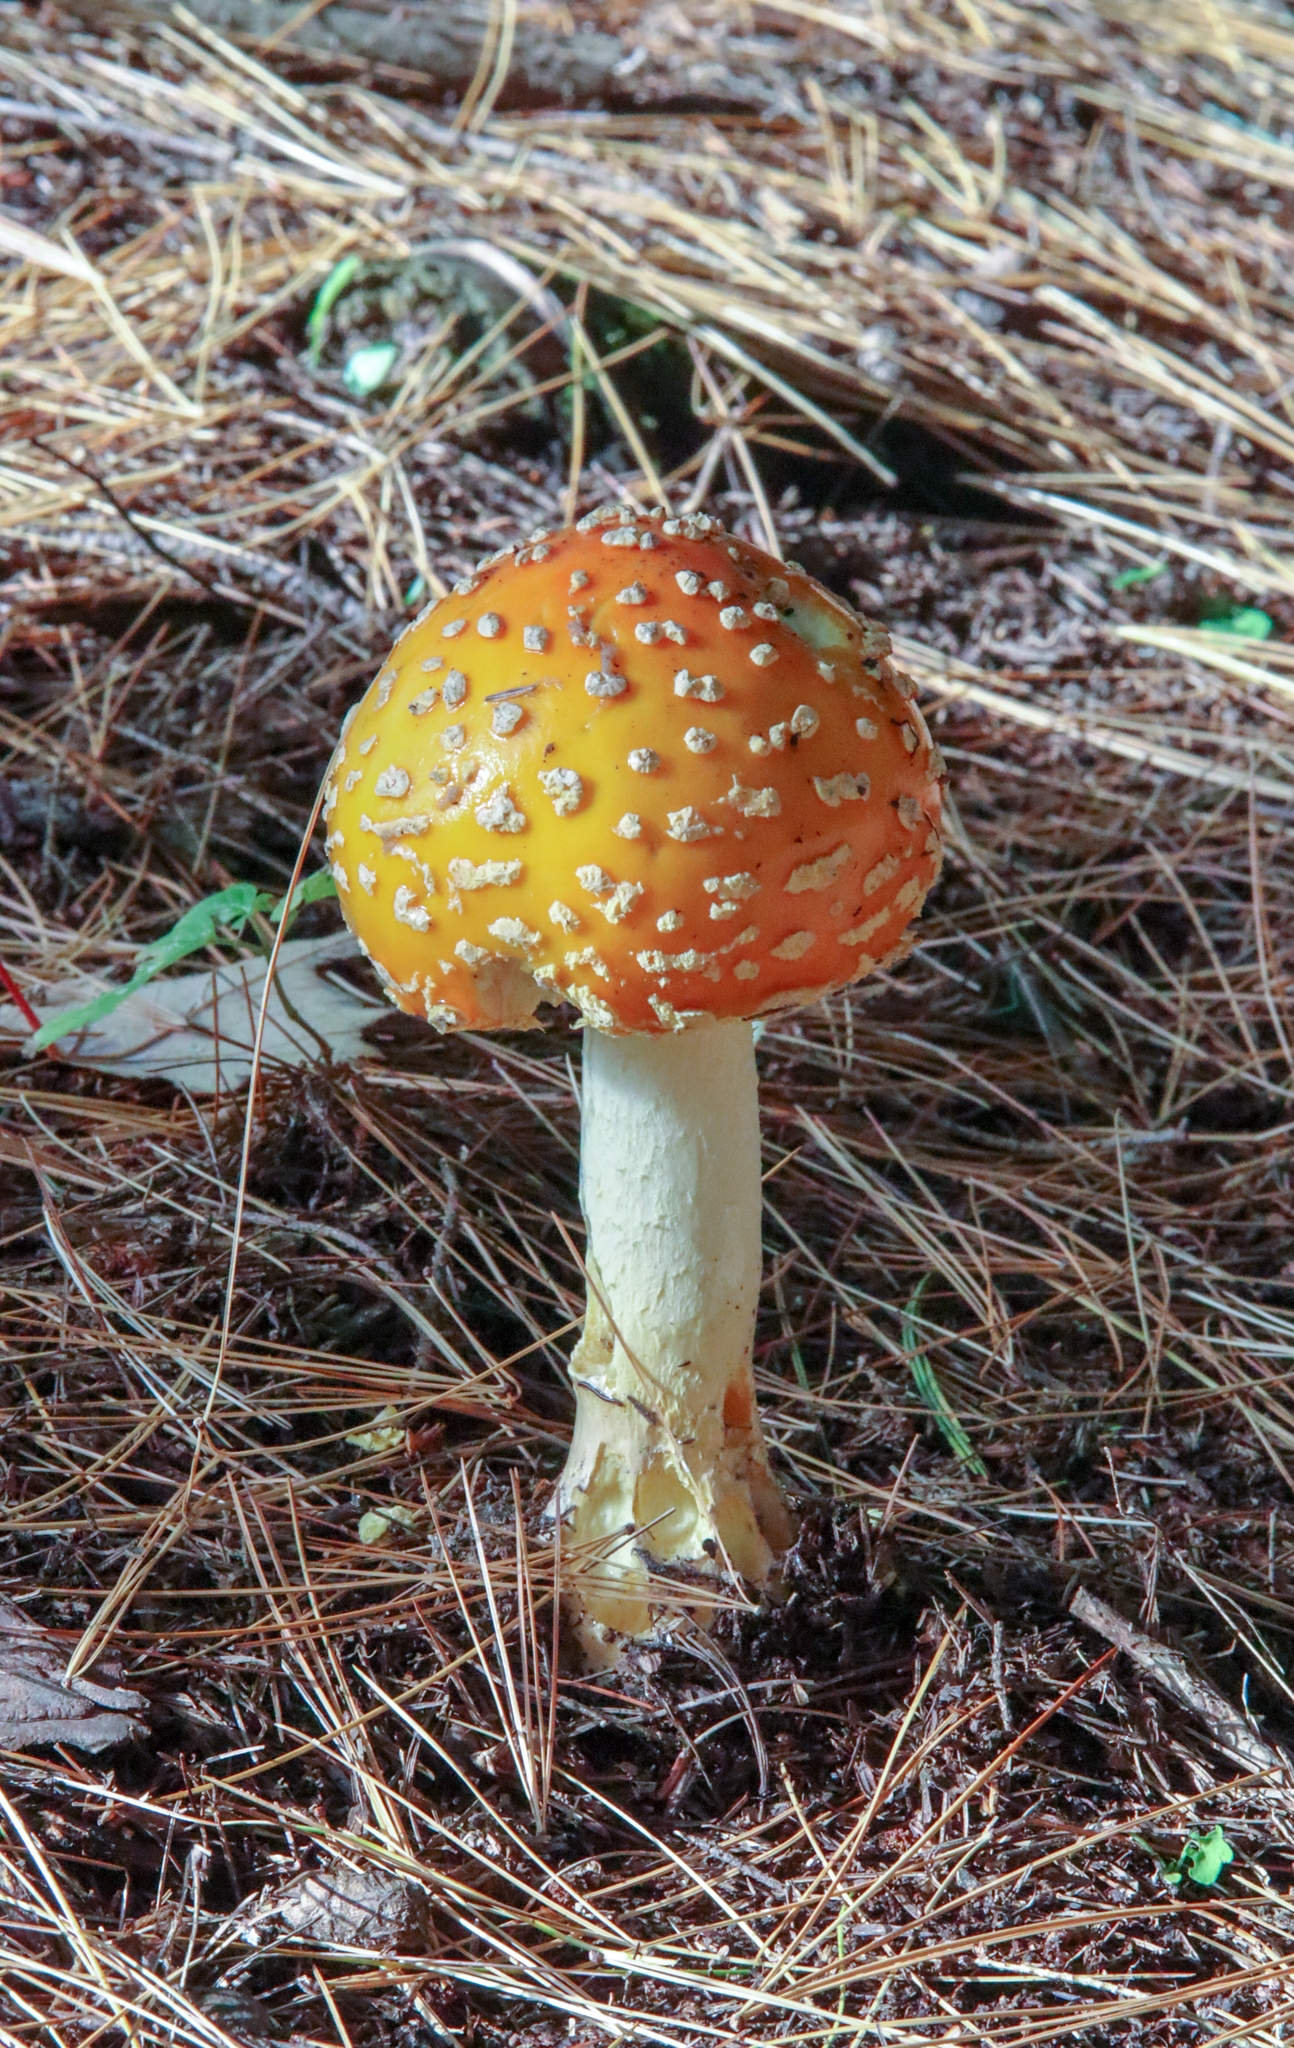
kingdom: Fungi
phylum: Basidiomycota
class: Agaricomycetes
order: Agaricales
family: Amanitaceae
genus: Amanita
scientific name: Amanita muscaria
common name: Fly agaric
